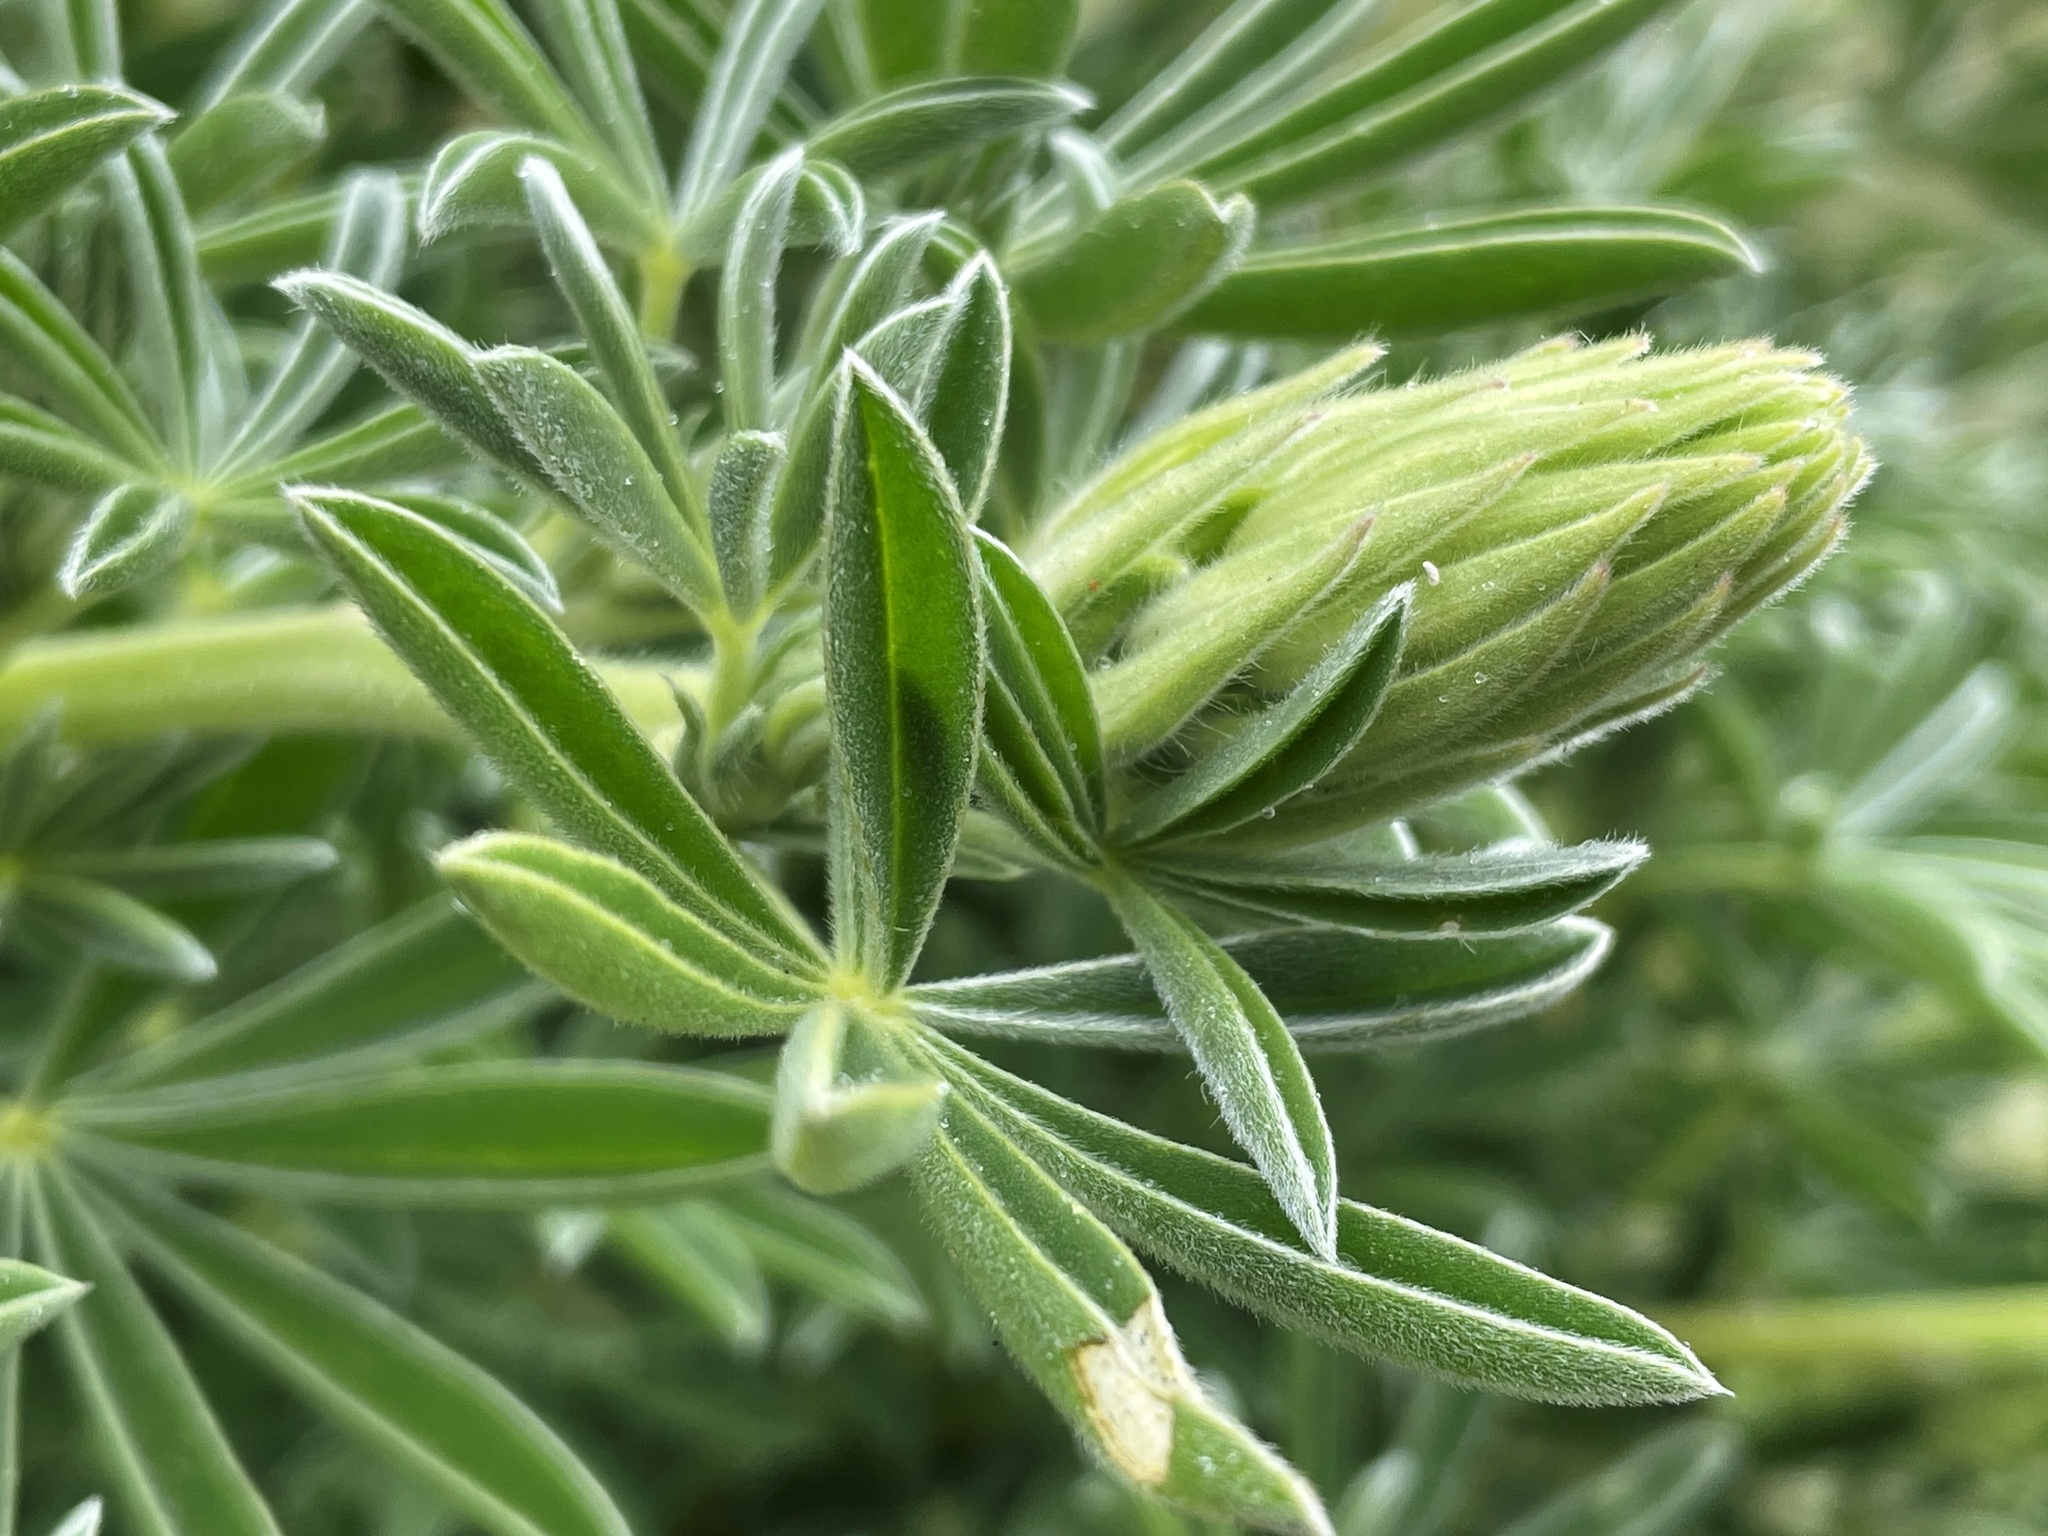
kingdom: Plantae
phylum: Tracheophyta
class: Magnoliopsida
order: Fabales
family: Fabaceae
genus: Lupinus
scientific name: Lupinus arboreus
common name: Yellow bush lupine
